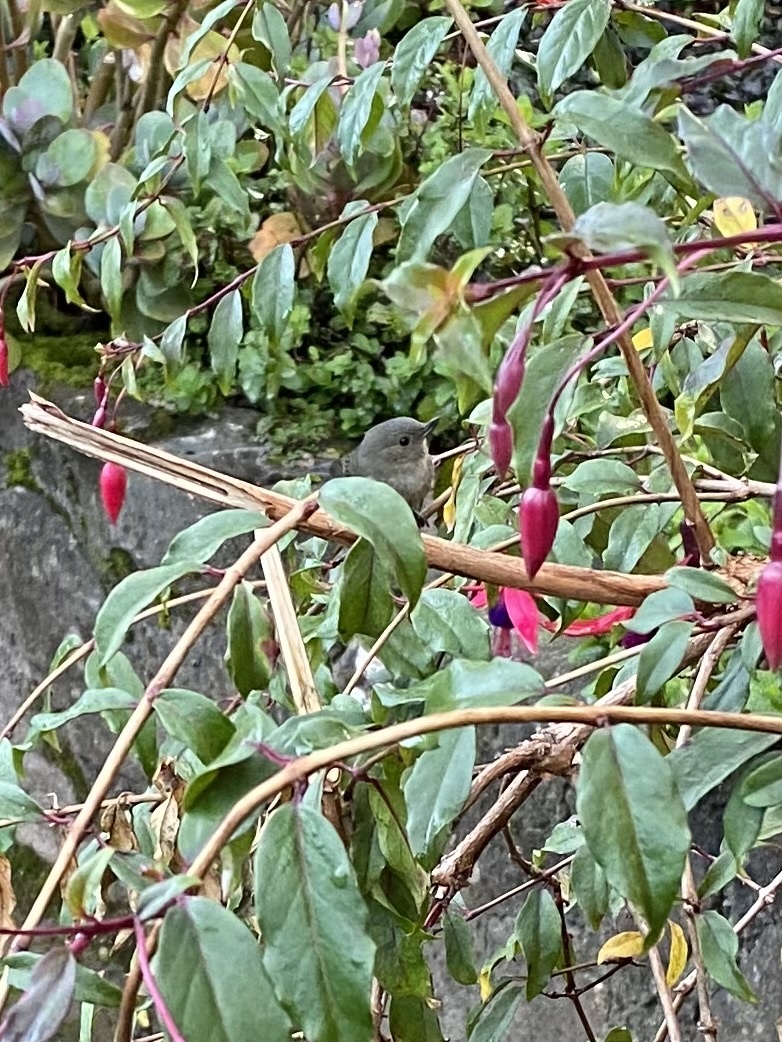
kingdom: Animalia
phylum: Chordata
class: Aves
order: Passeriformes
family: Thraupidae
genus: Diglossa
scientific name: Diglossa plumbea
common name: Slaty flowerpiercer
